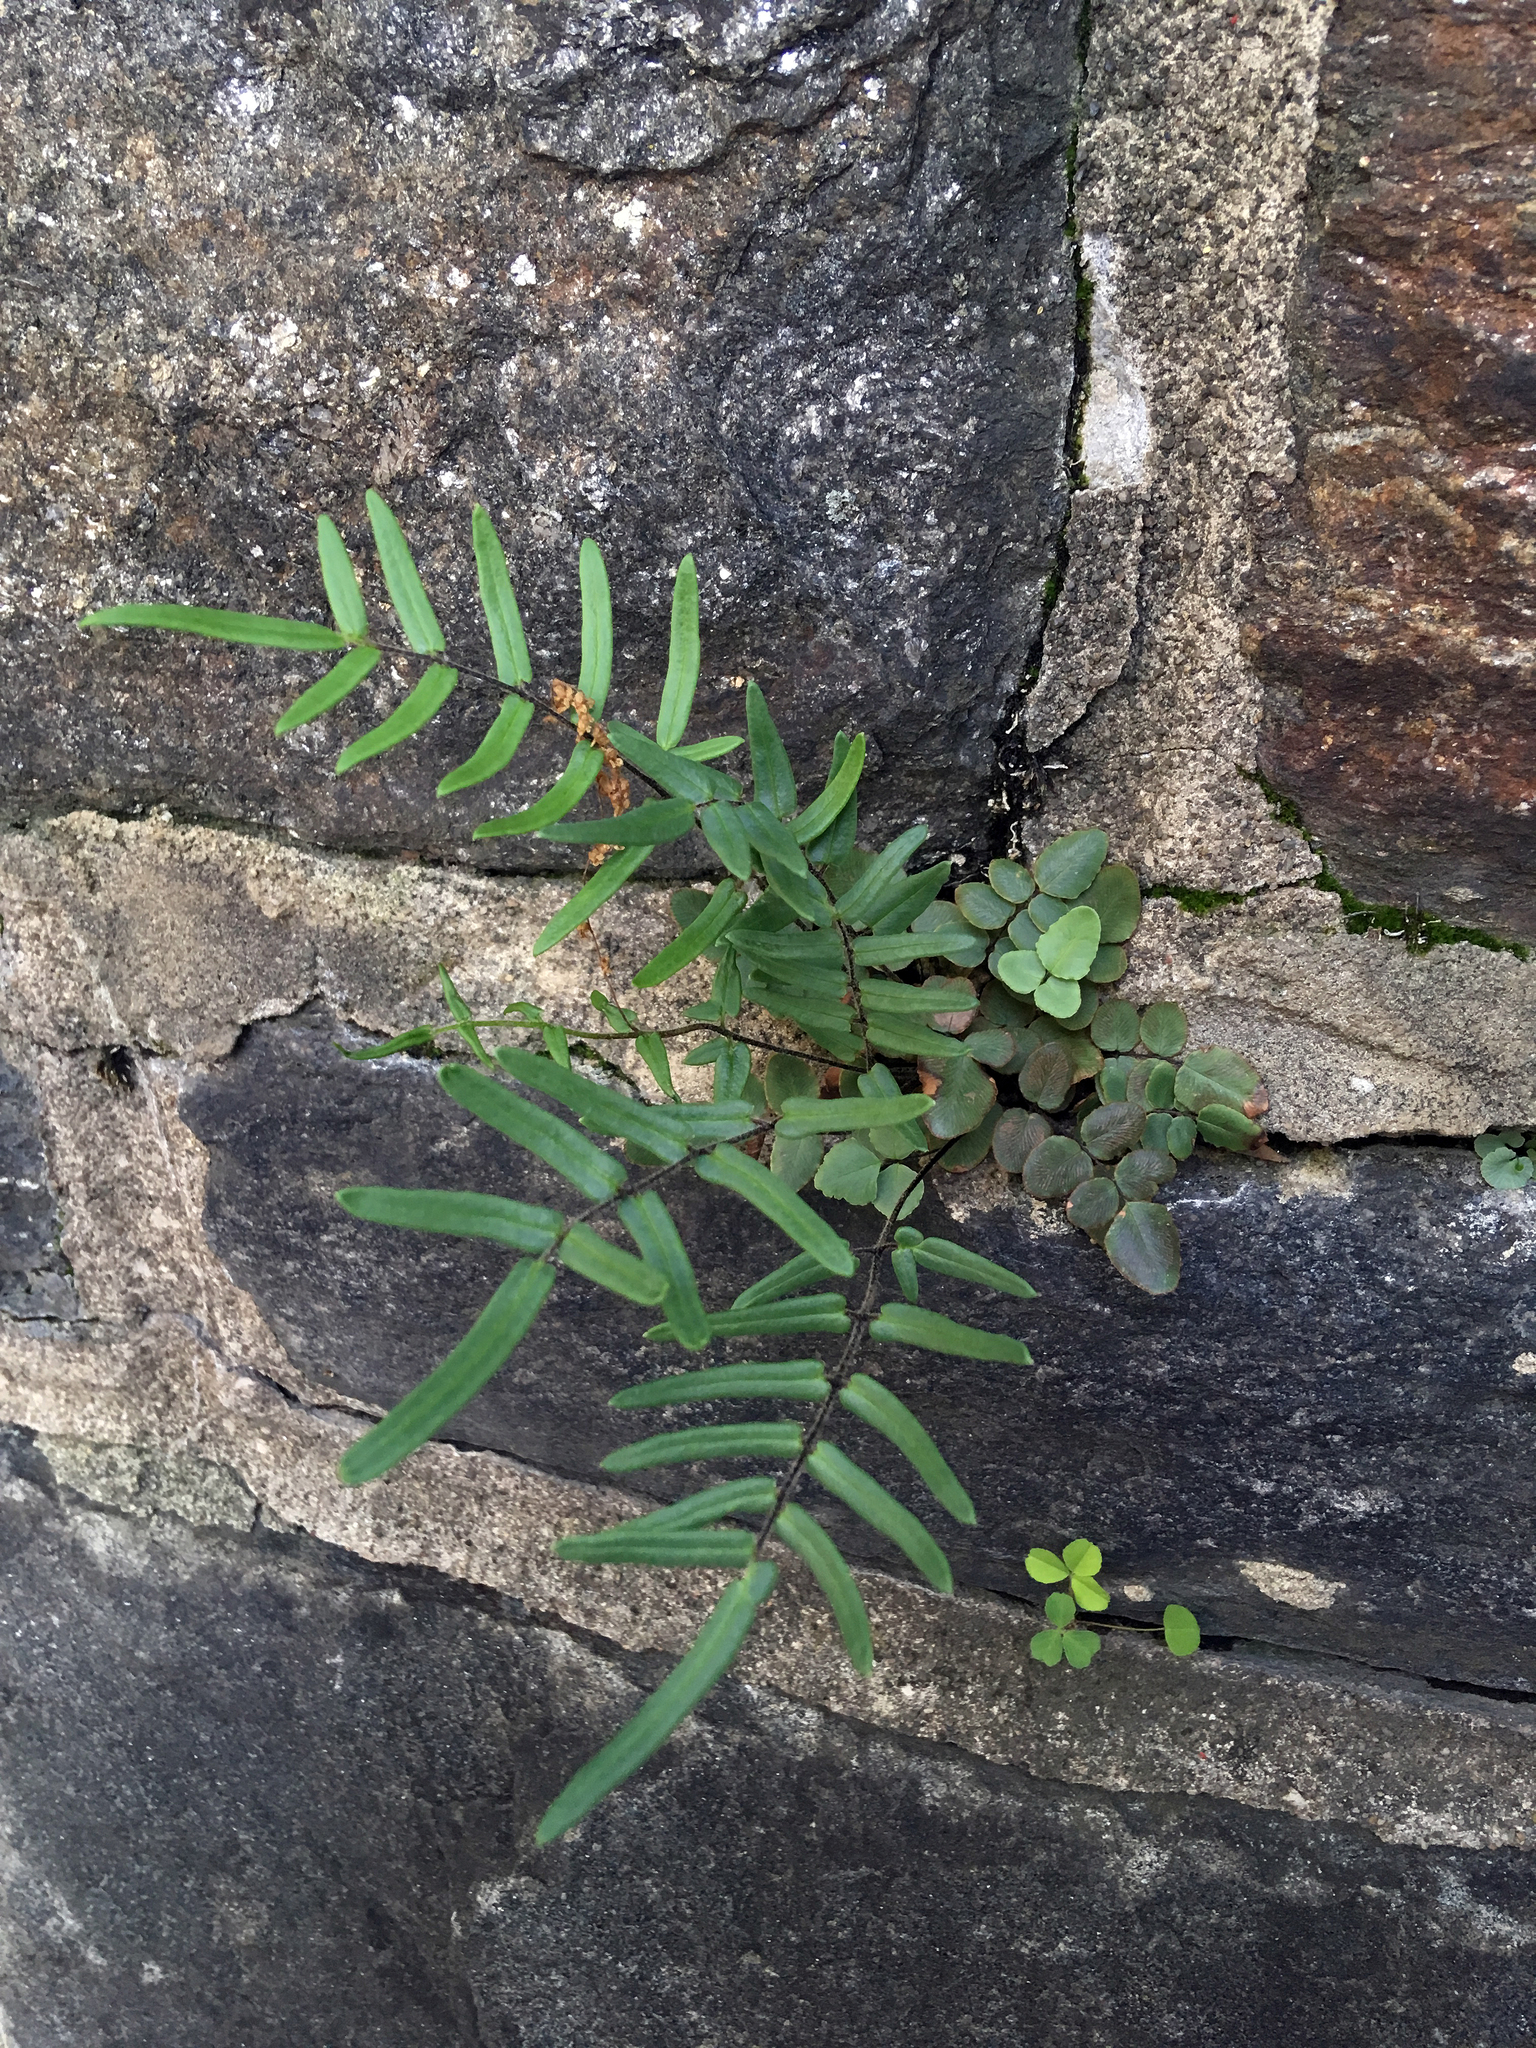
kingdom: Plantae
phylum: Tracheophyta
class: Polypodiopsida
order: Polypodiales
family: Pteridaceae
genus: Pellaea
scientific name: Pellaea atropurpurea
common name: Hairy cliffbrake
